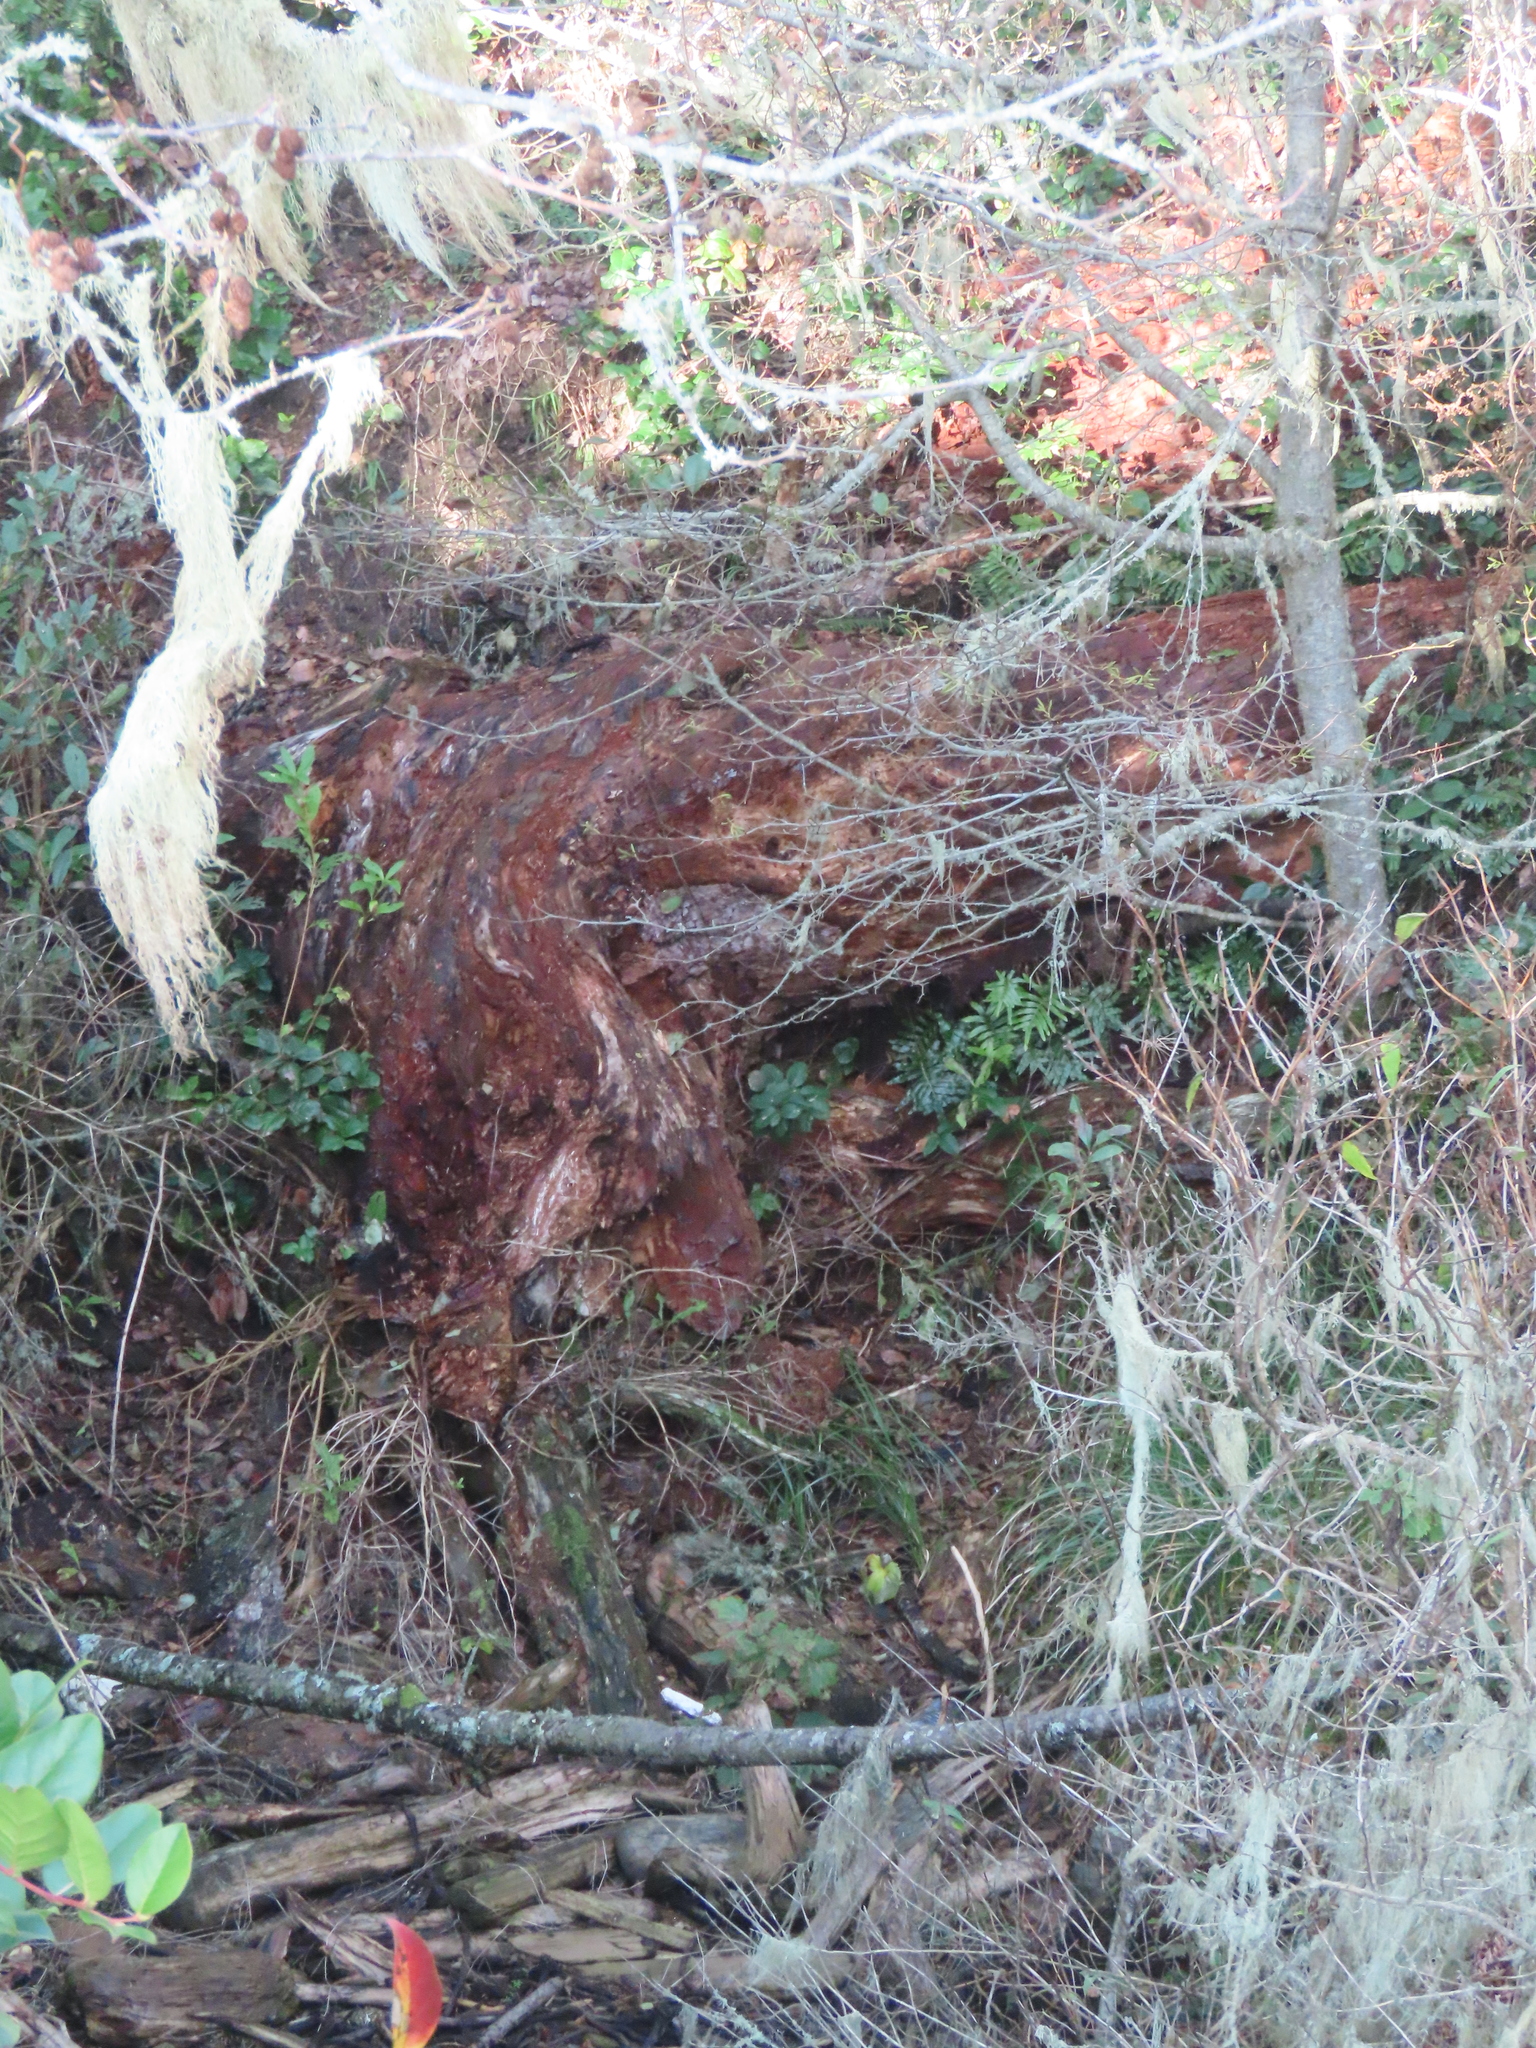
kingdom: Plantae
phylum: Tracheophyta
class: Polypodiopsida
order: Polypodiales
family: Polypodiaceae
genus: Polypodium
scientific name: Polypodium scouleri
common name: Scouler's polypody
